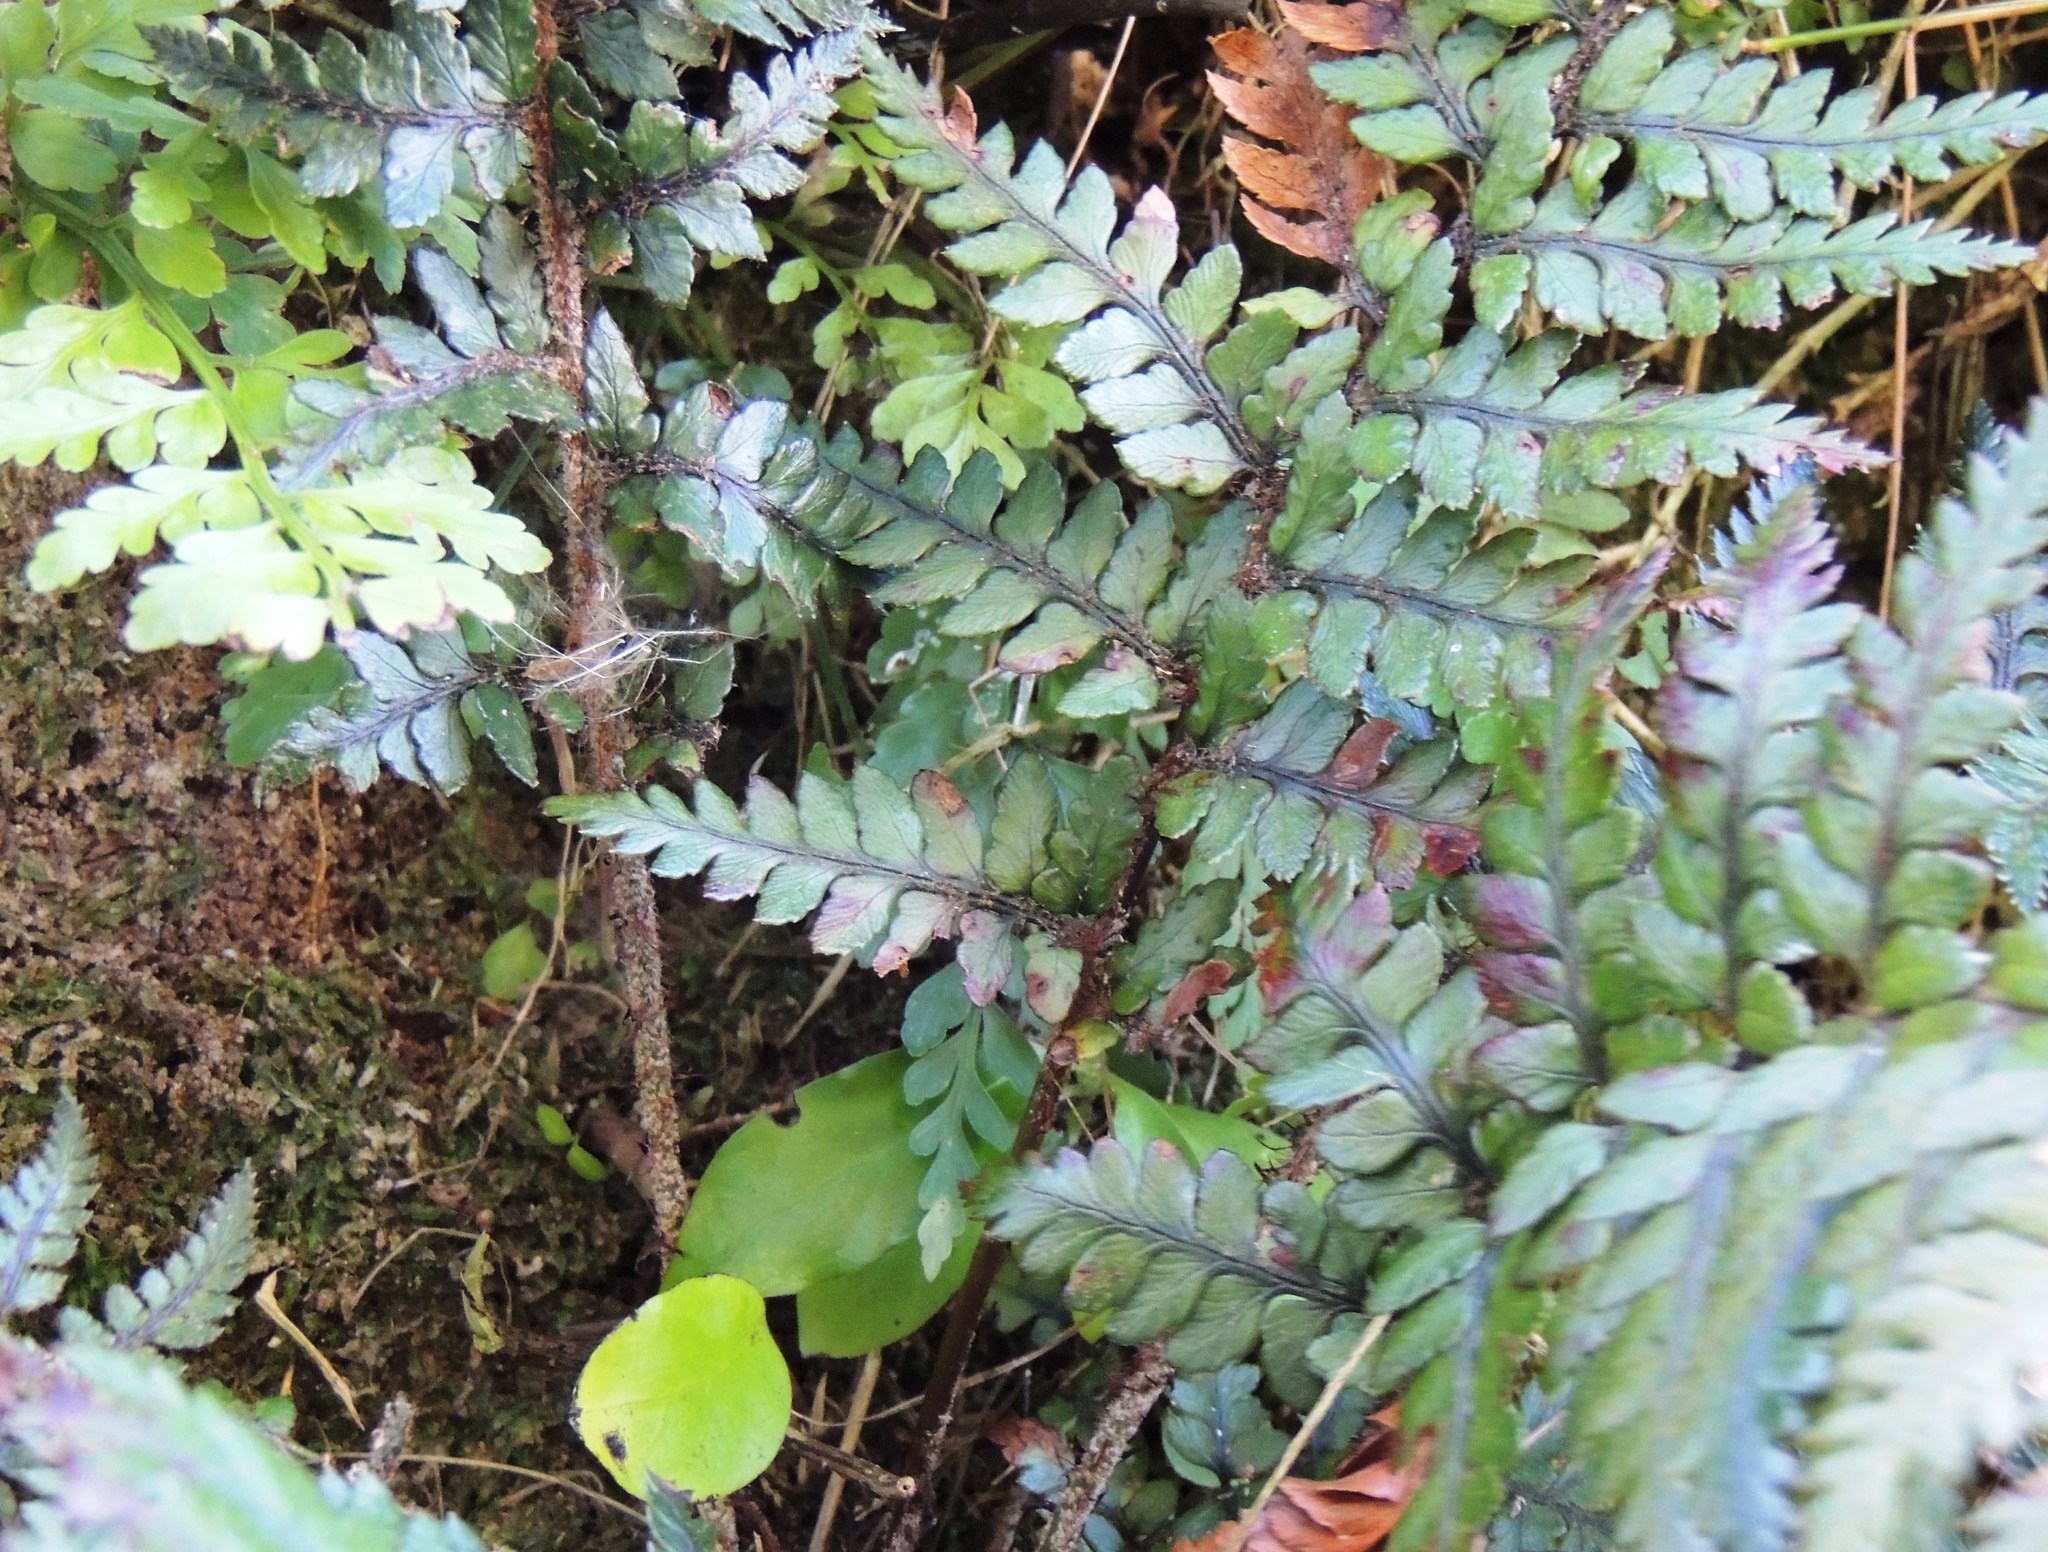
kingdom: Plantae
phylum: Tracheophyta
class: Polypodiopsida
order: Polypodiales
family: Dryopteridaceae
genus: Polystichum
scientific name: Polystichum neozelandicum
